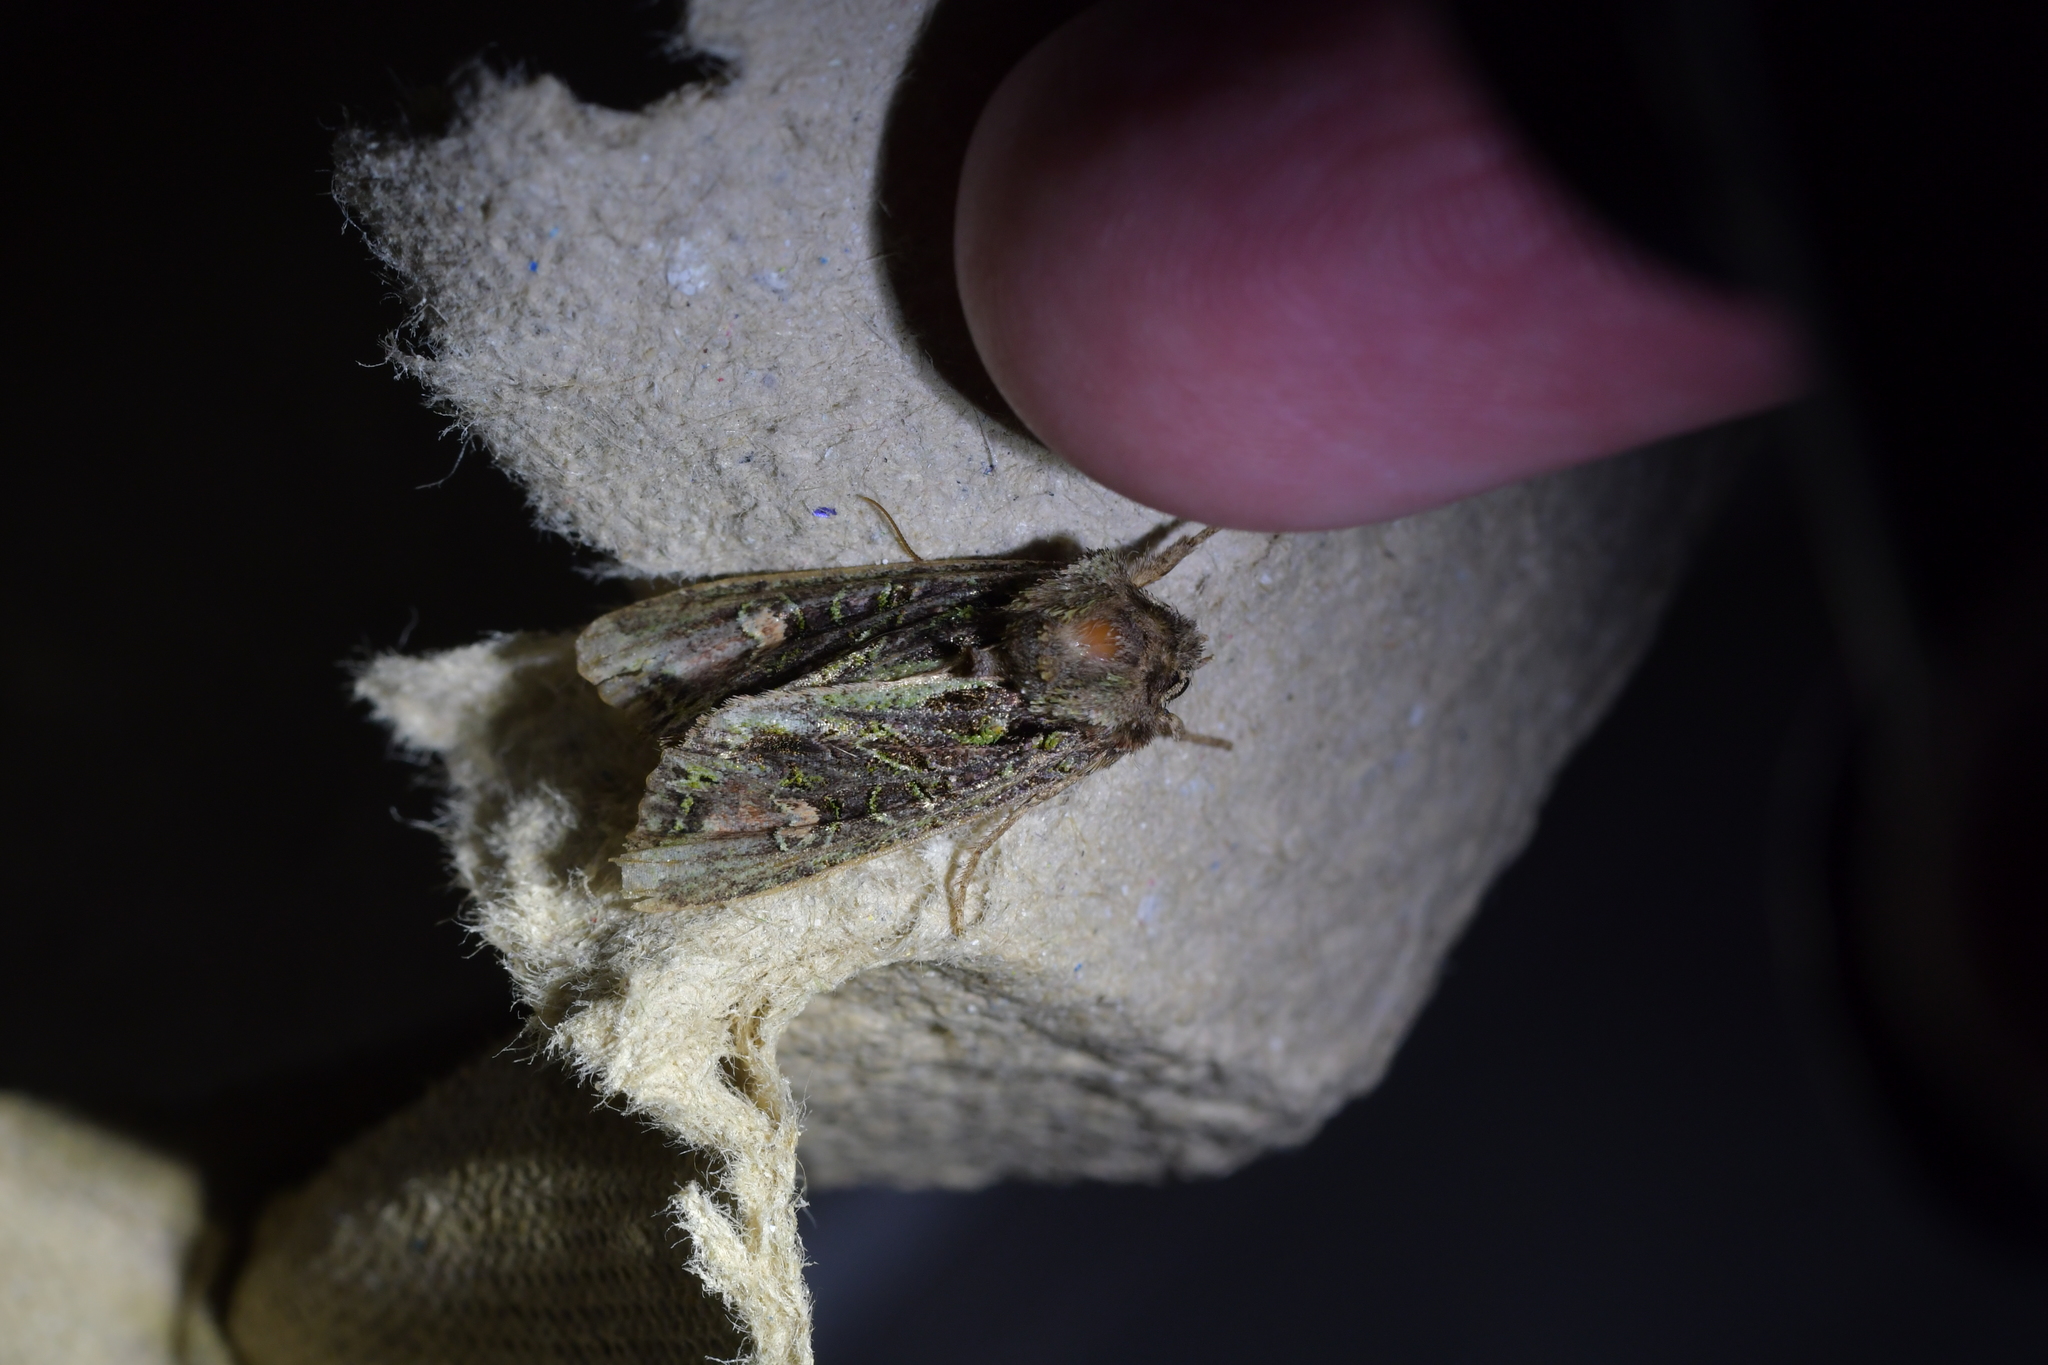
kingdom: Animalia
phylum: Arthropoda
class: Insecta
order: Lepidoptera
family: Noctuidae
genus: Ichneutica
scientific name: Ichneutica insignis
